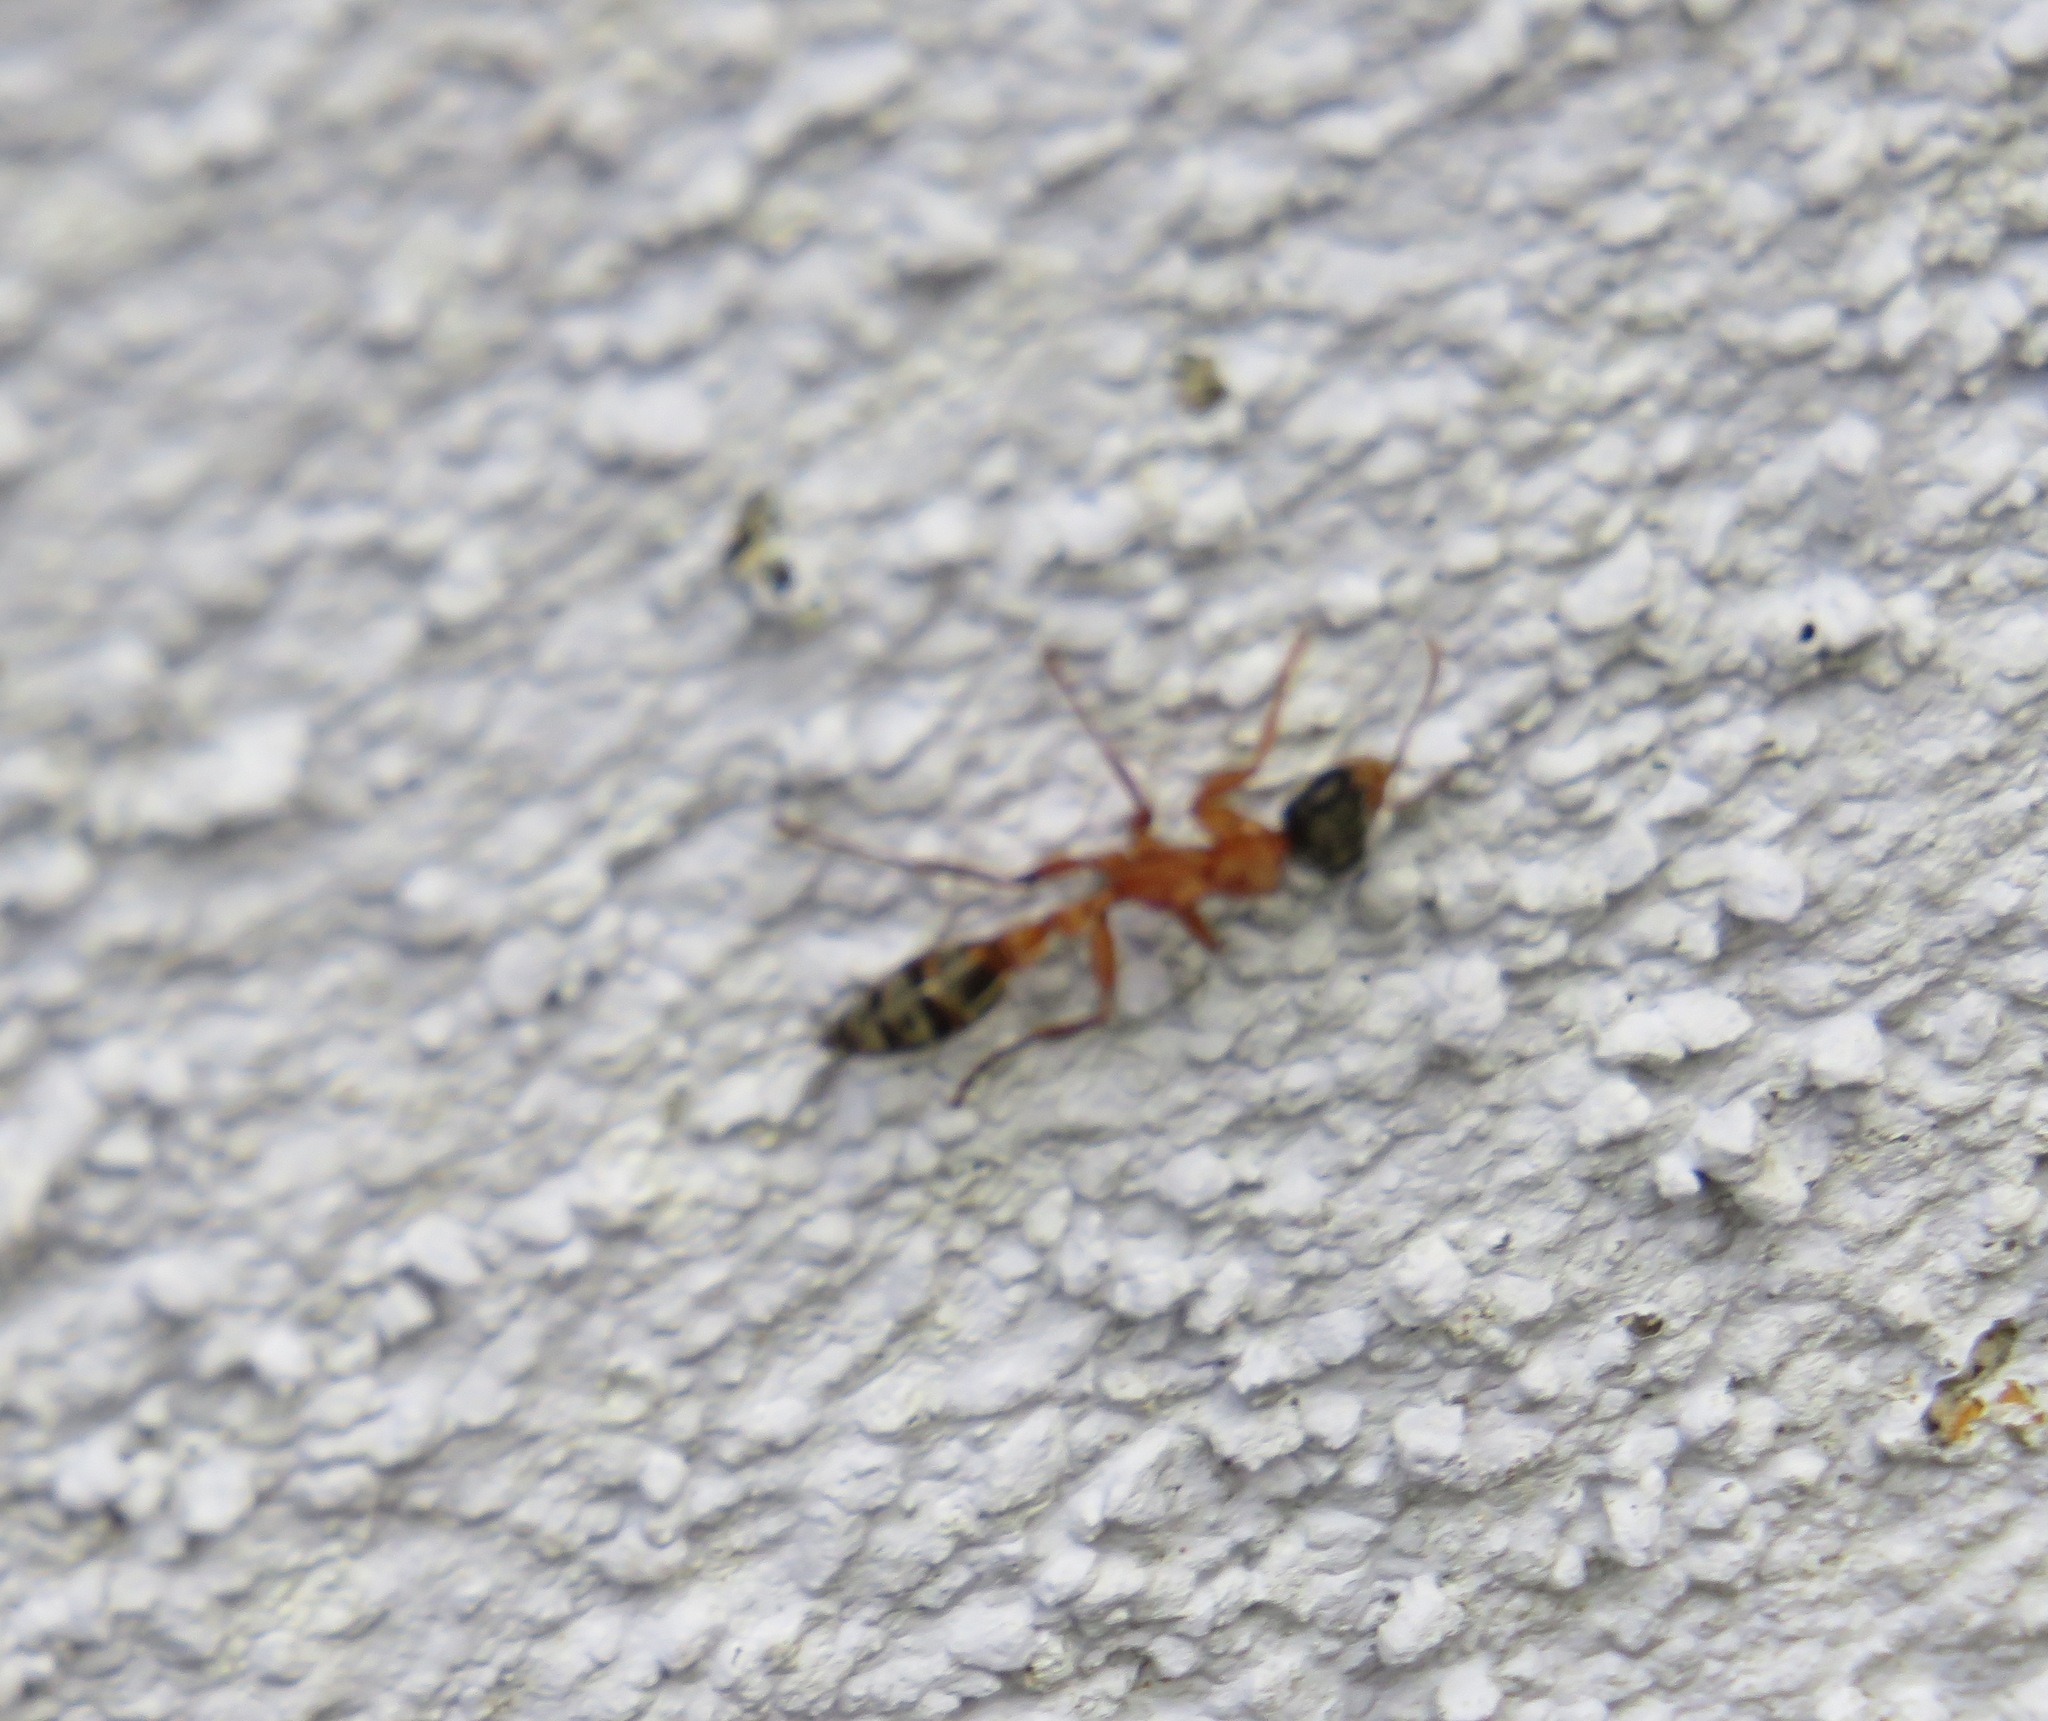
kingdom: Animalia
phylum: Arthropoda
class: Insecta
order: Hymenoptera
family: Formicidae
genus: Pseudomyrmex
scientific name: Pseudomyrmex gracilis
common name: Graceful twig ant
